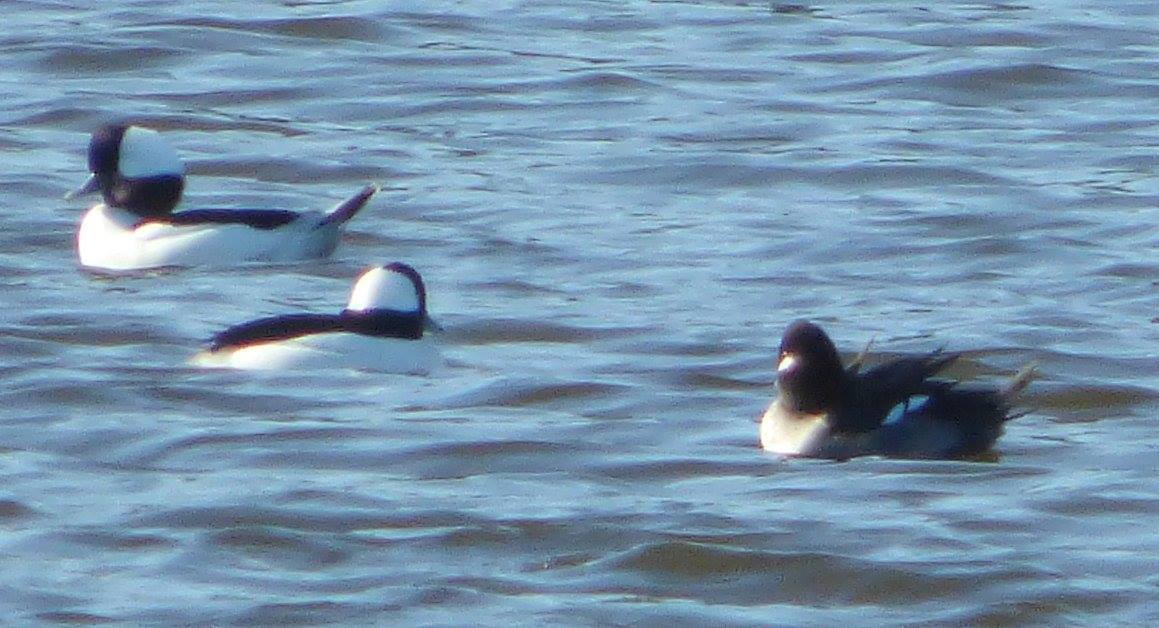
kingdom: Animalia
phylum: Chordata
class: Aves
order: Anseriformes
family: Anatidae
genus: Bucephala
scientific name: Bucephala albeola
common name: Bufflehead
